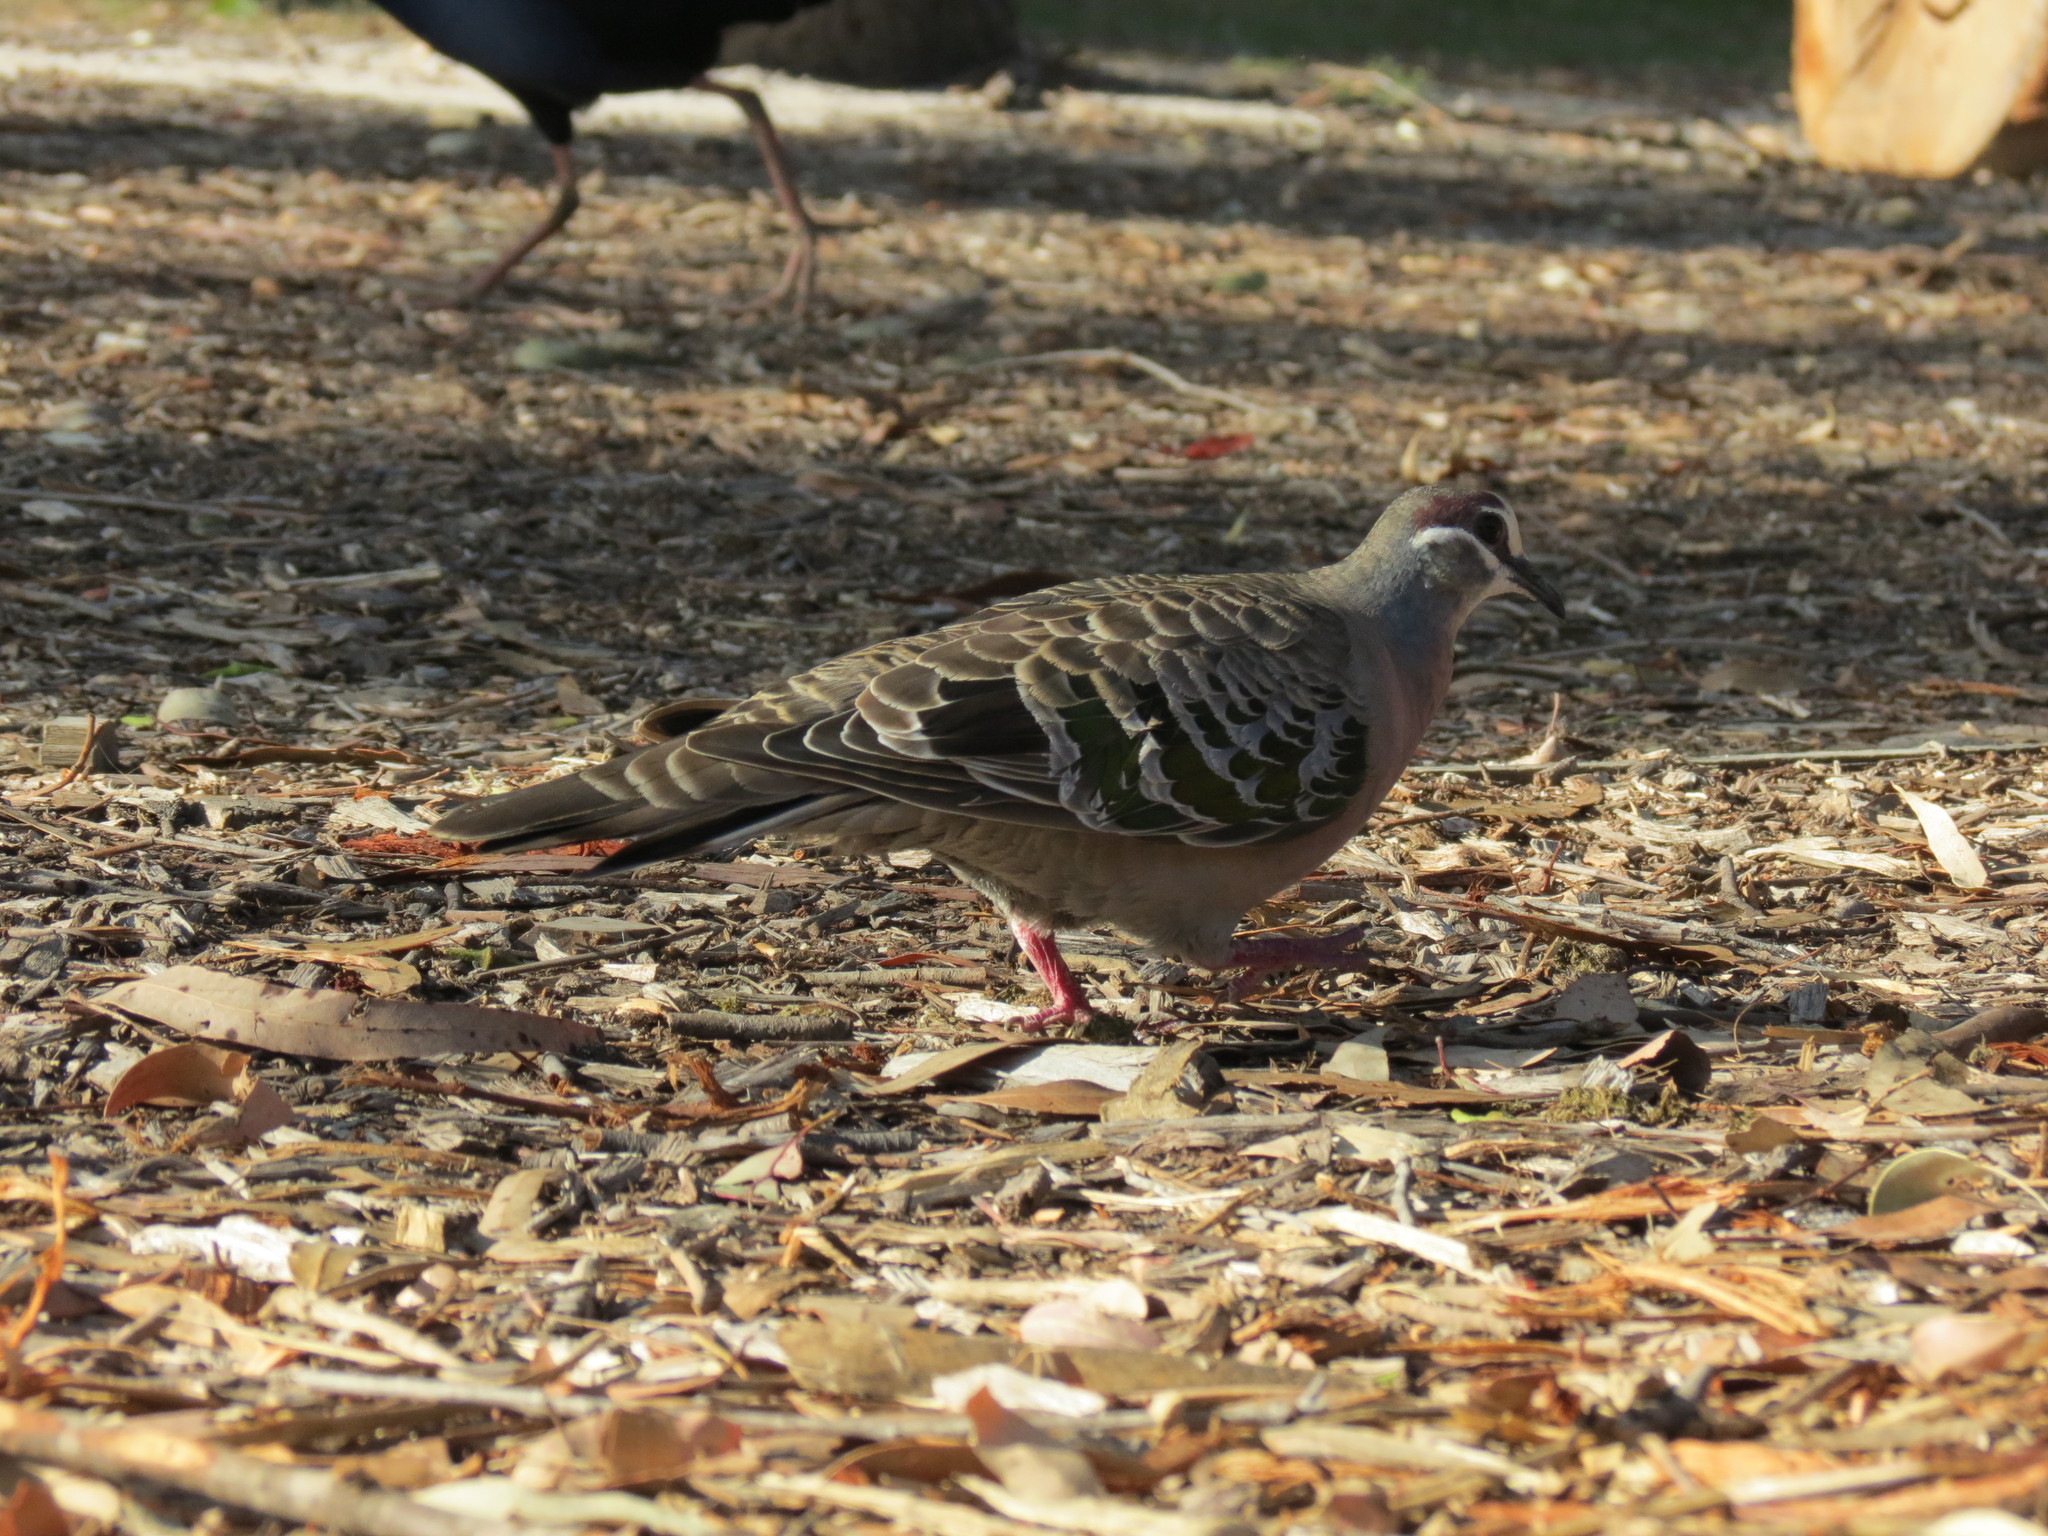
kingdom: Animalia
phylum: Chordata
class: Aves
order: Columbiformes
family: Columbidae
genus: Phaps
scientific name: Phaps chalcoptera
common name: Common bronzewing
